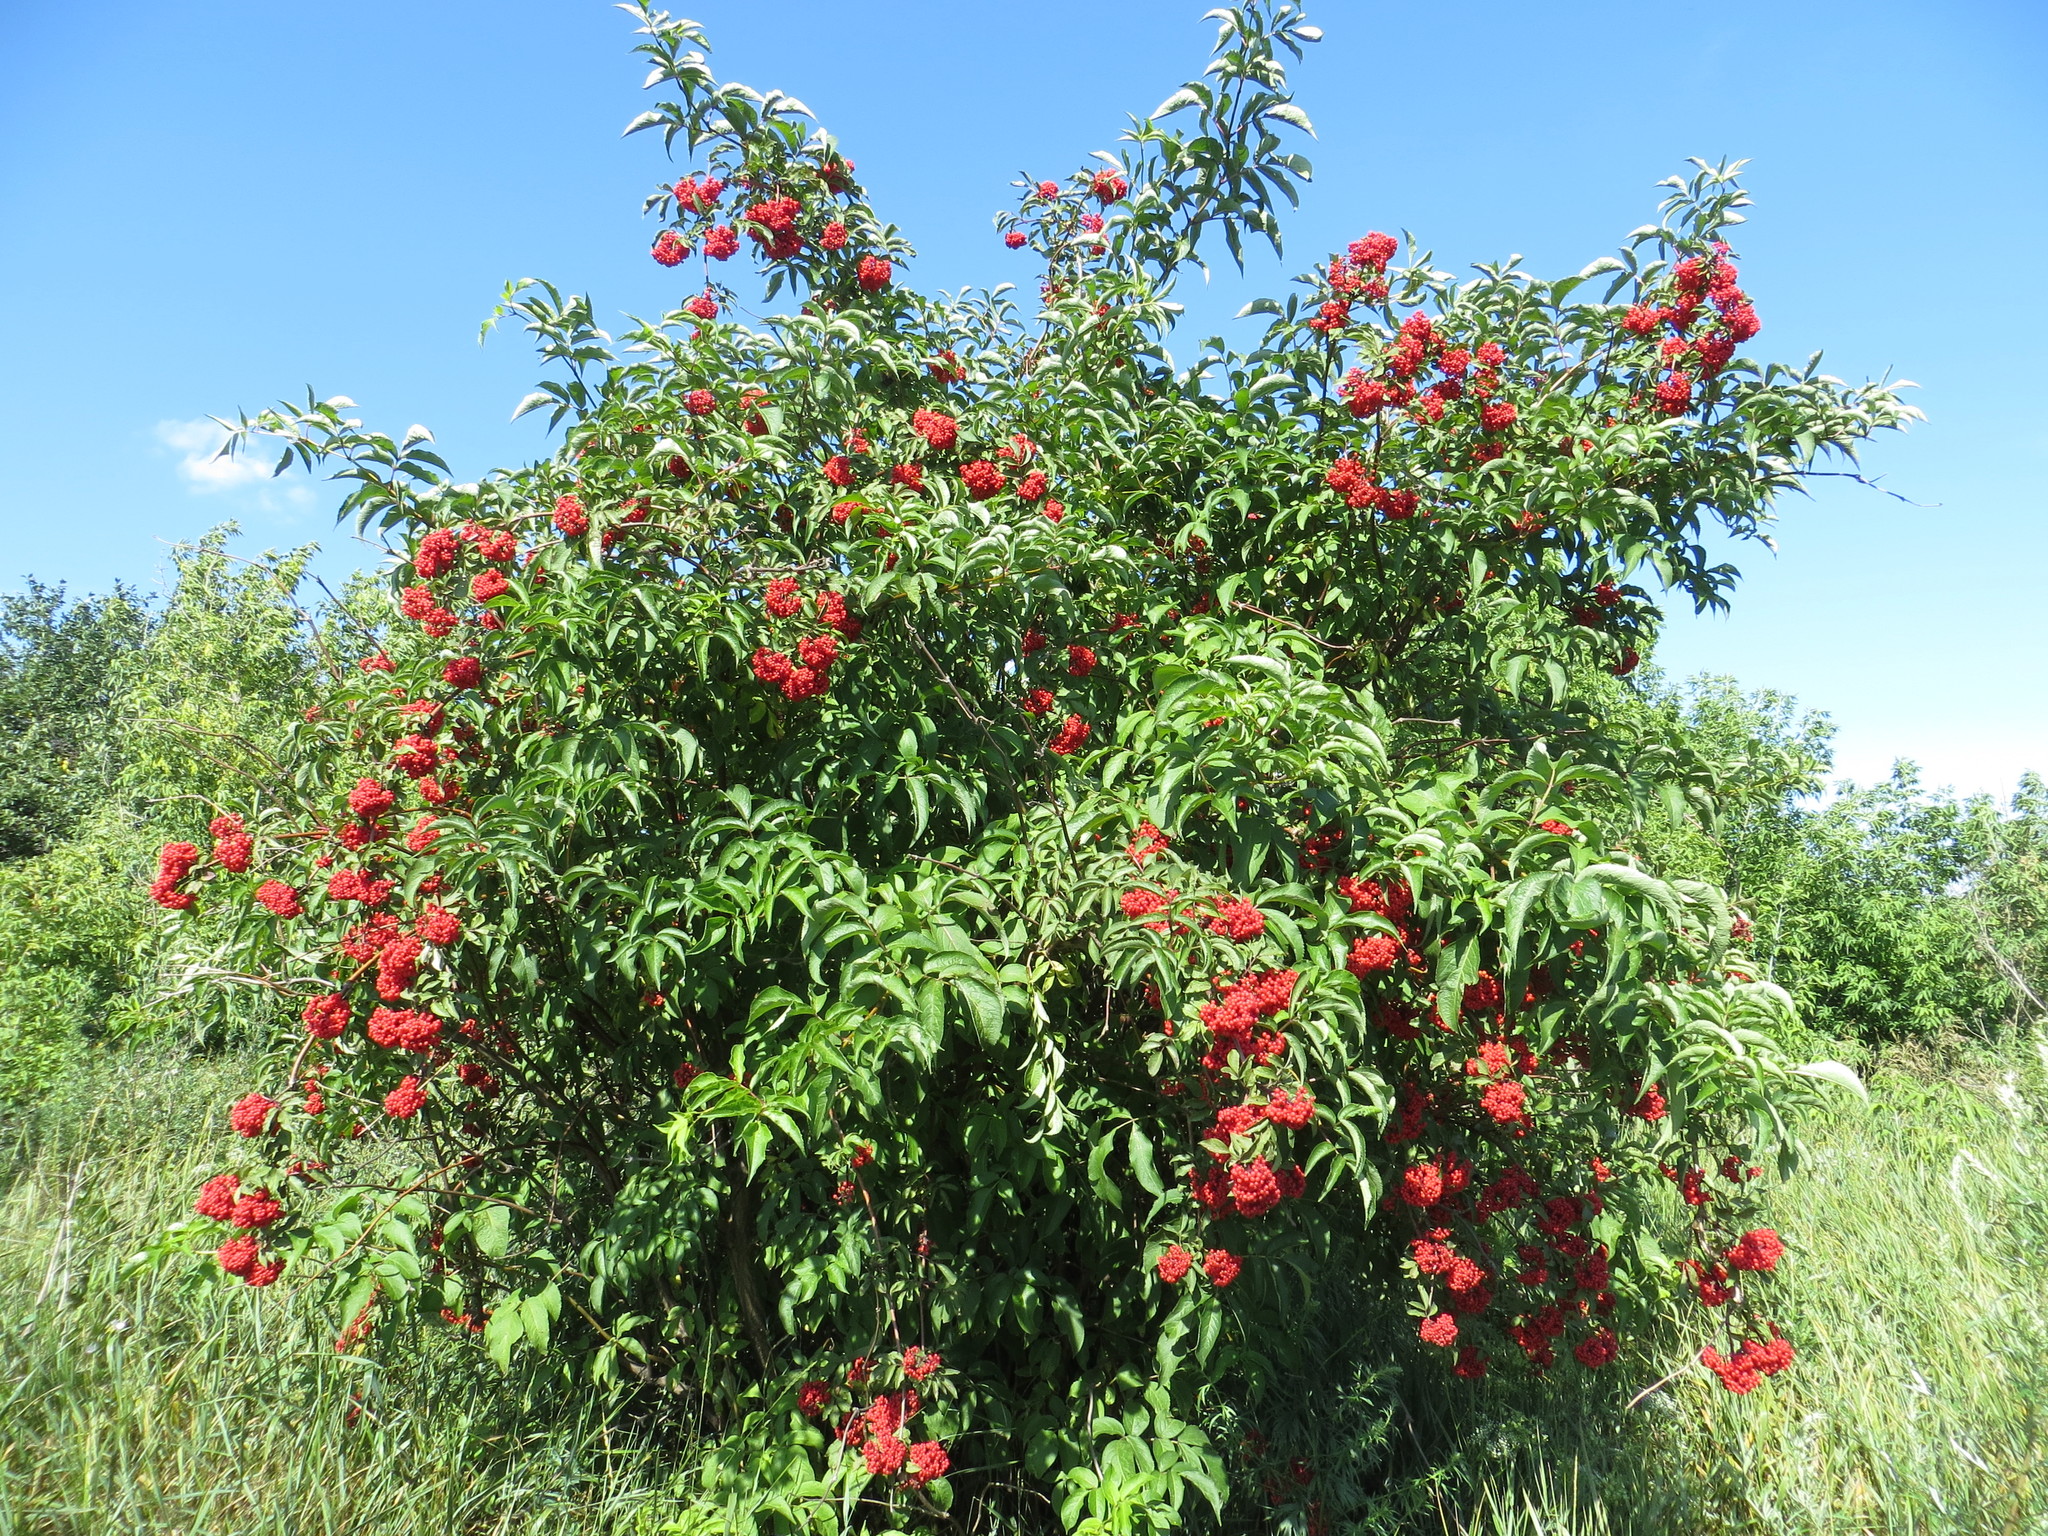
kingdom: Plantae
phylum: Tracheophyta
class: Magnoliopsida
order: Dipsacales
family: Viburnaceae
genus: Sambucus
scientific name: Sambucus racemosa
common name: Red-berried elder
